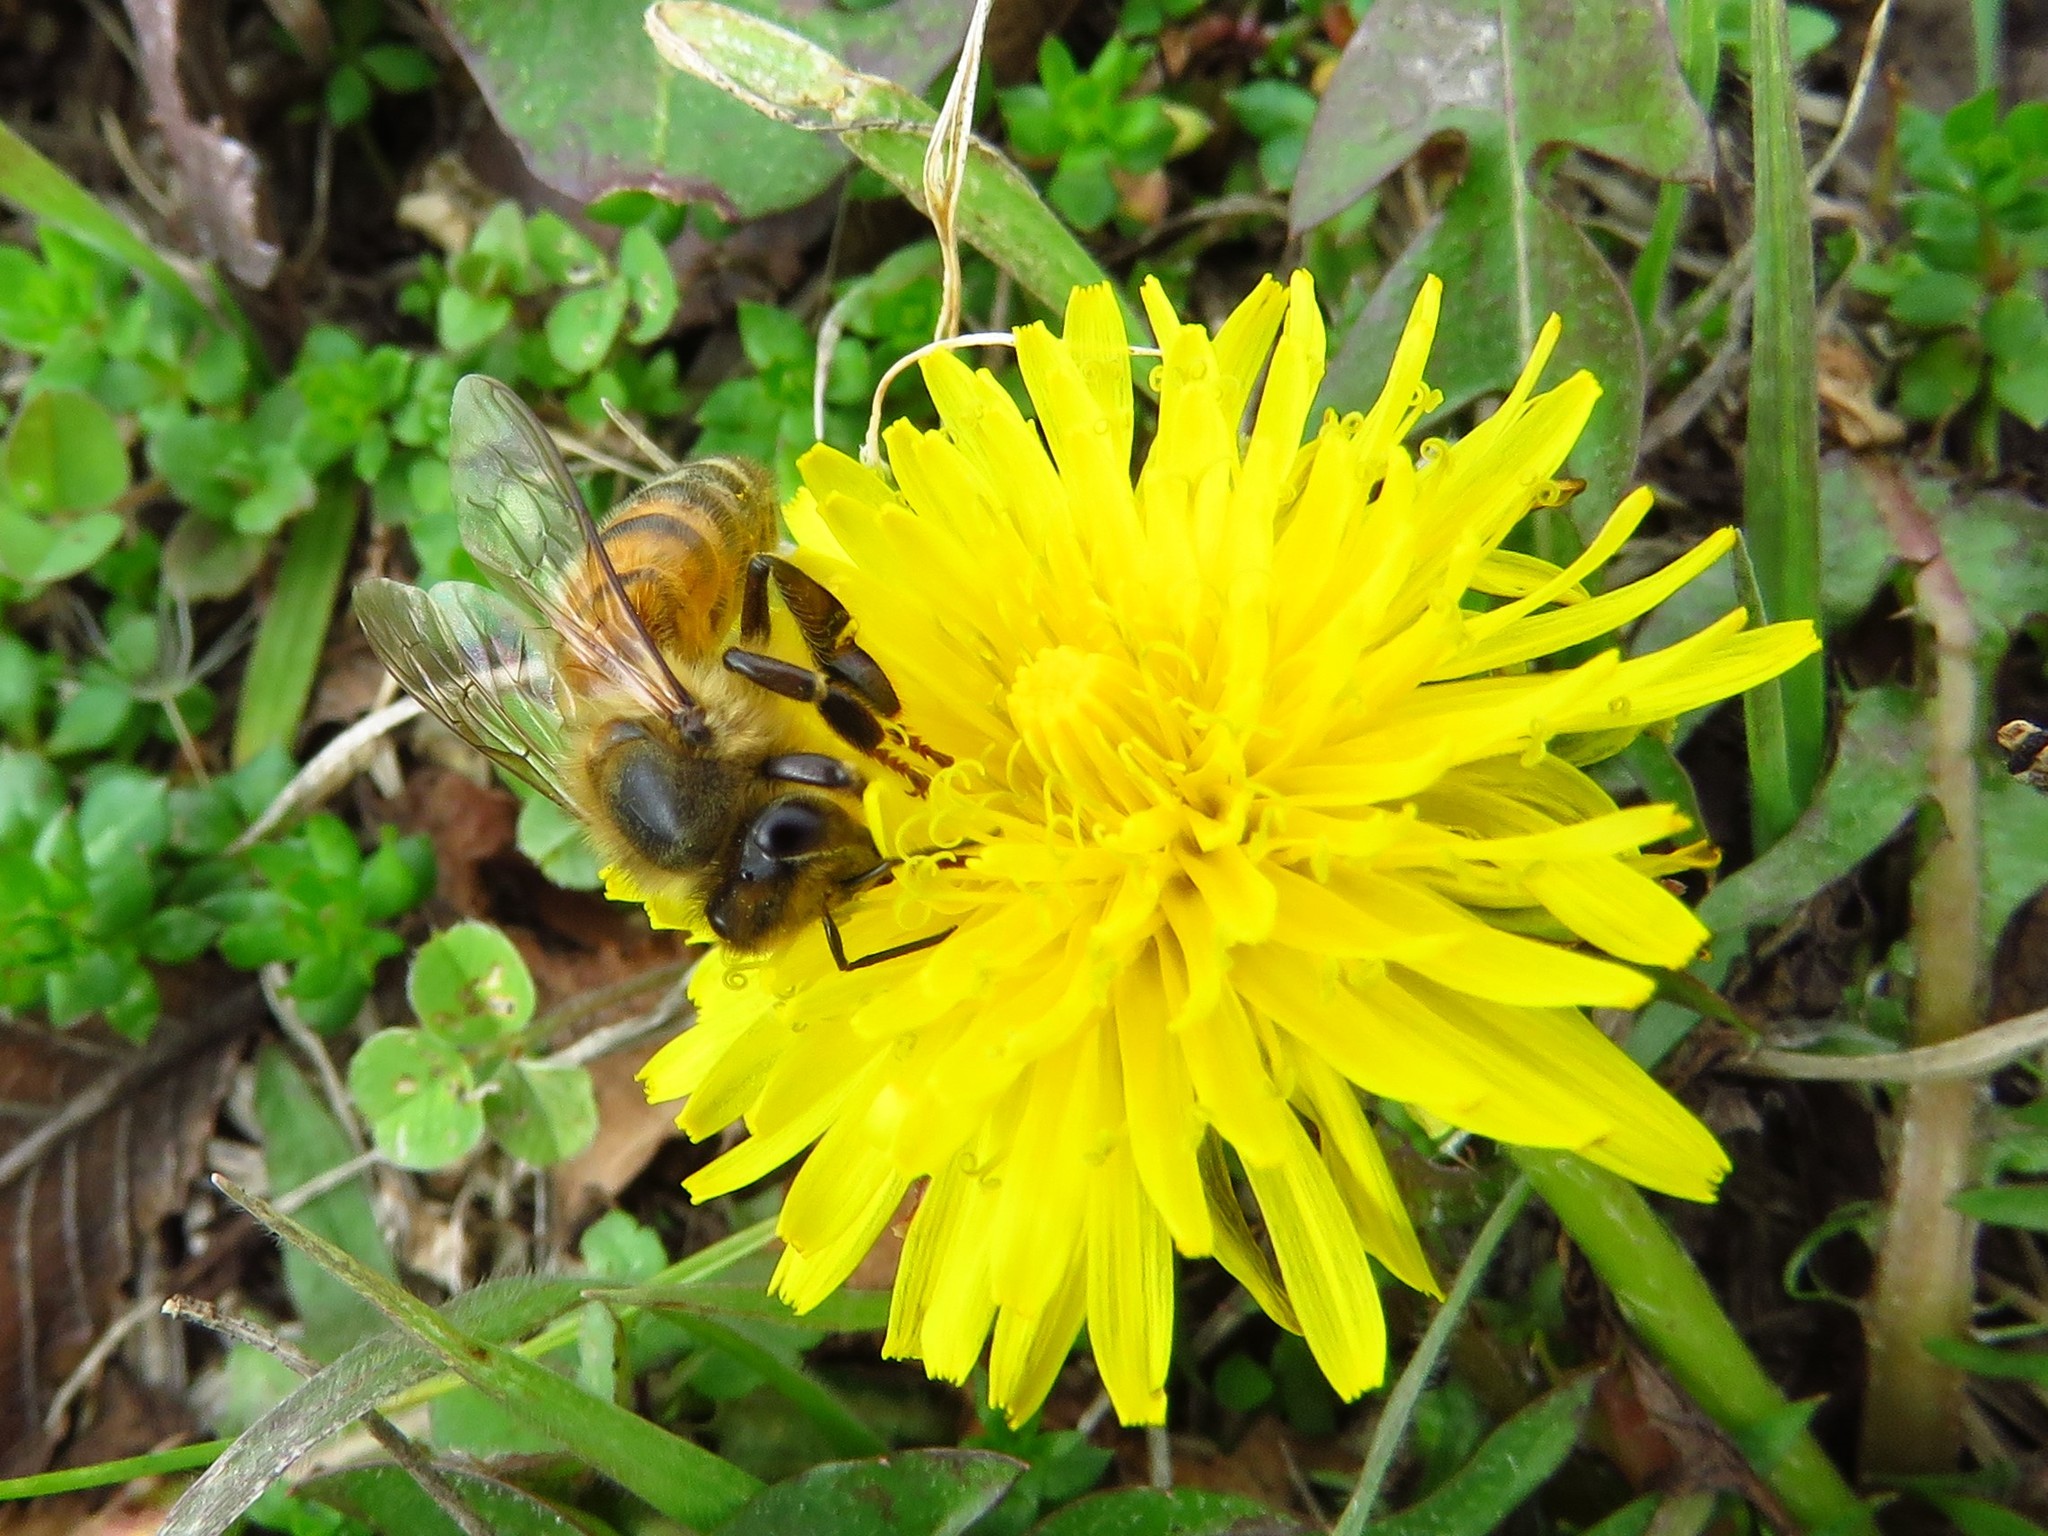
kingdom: Animalia
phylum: Arthropoda
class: Insecta
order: Hymenoptera
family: Apidae
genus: Apis
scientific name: Apis mellifera
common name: Honey bee
